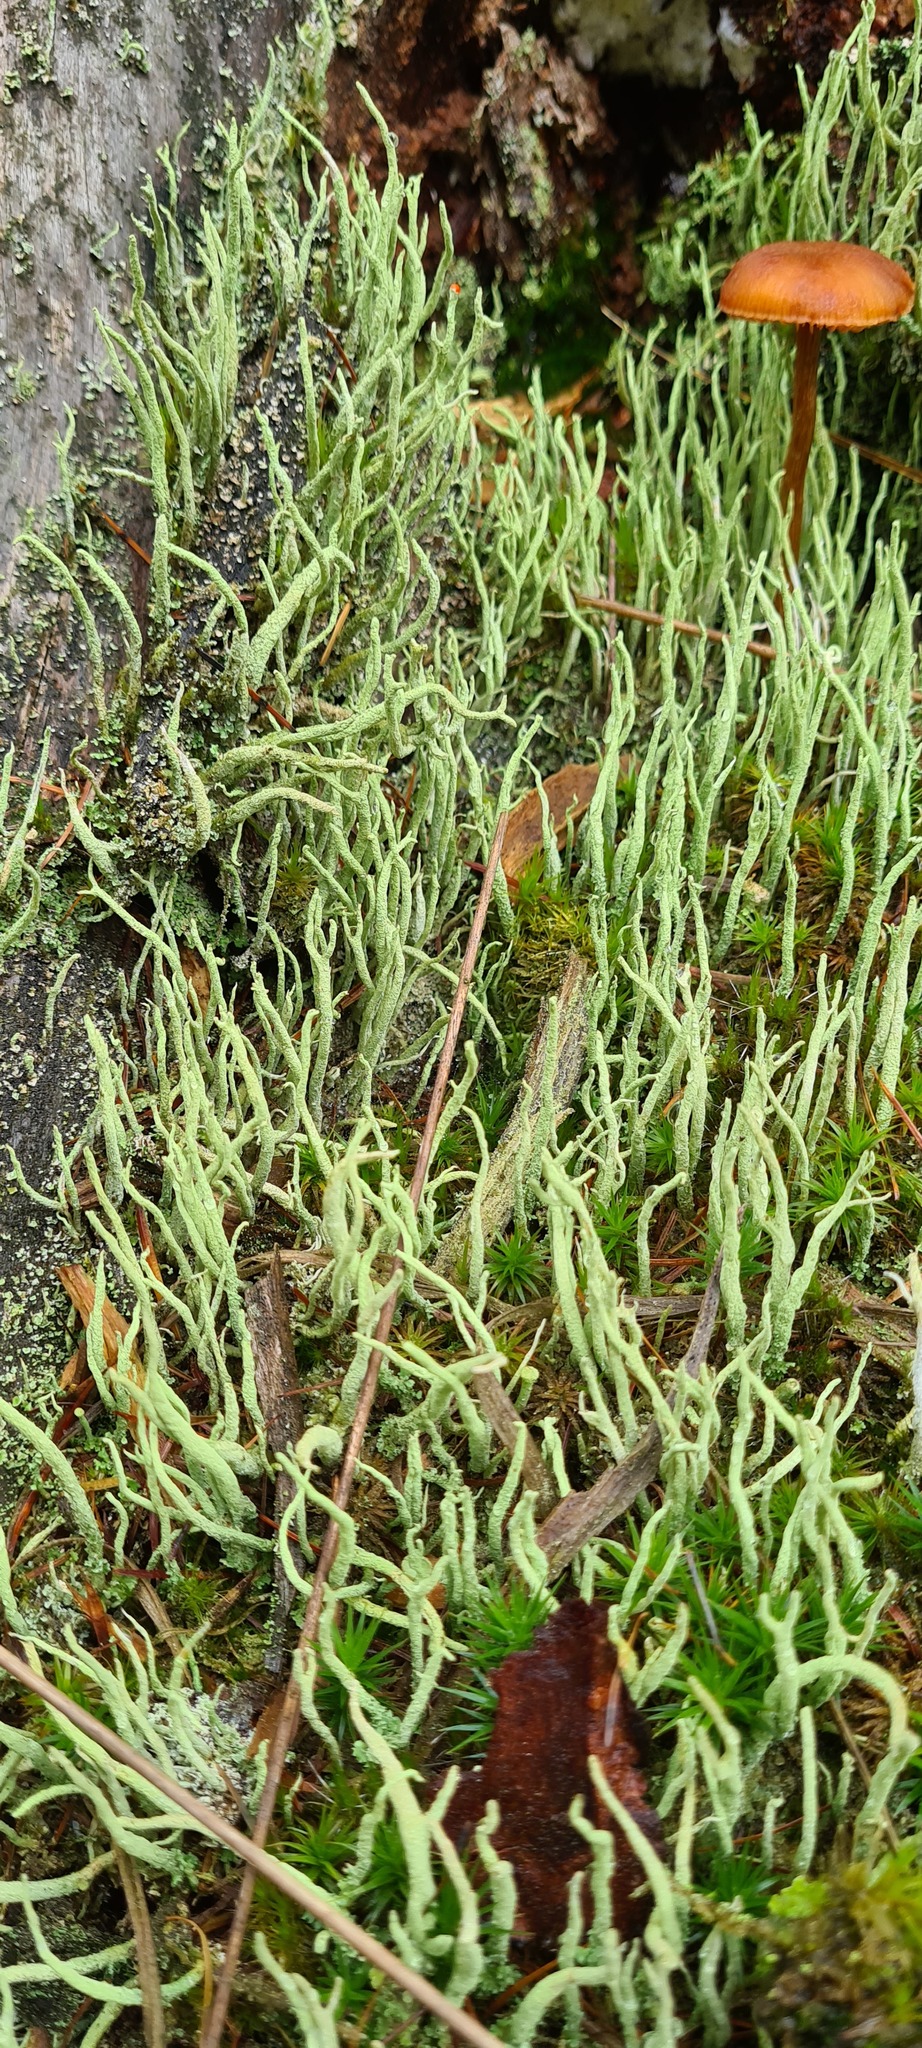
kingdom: Fungi
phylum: Ascomycota
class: Lecanoromycetes
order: Lecanorales
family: Cladoniaceae
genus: Cladonia
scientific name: Cladonia subulata
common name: Antlered powderhorn
